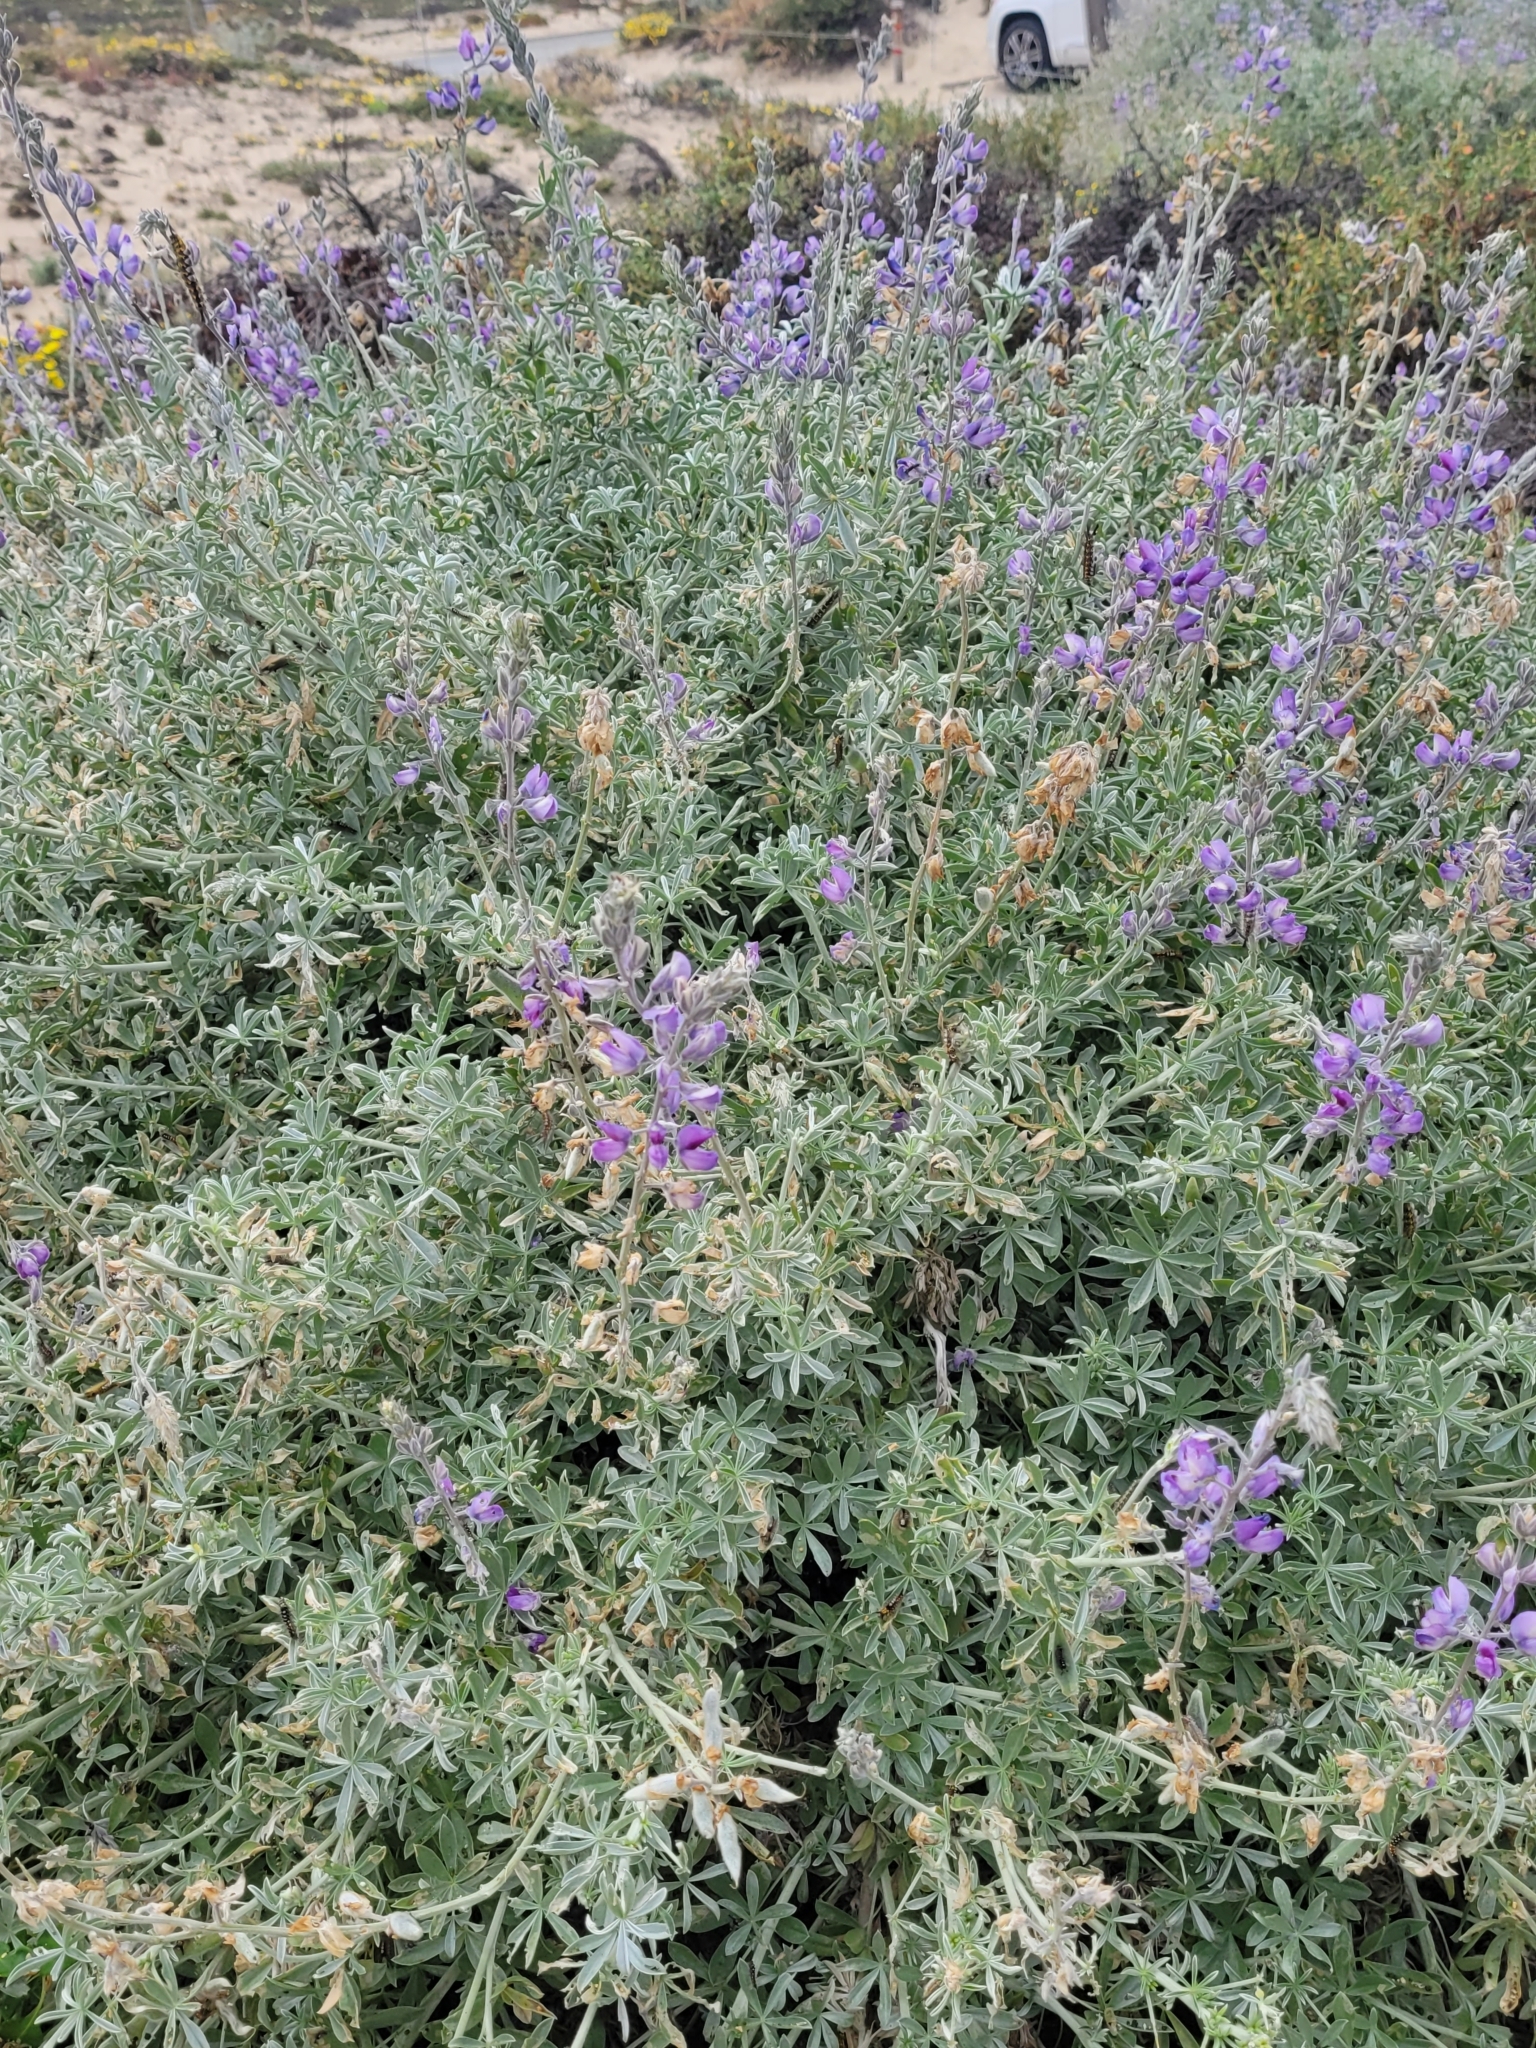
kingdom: Plantae
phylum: Tracheophyta
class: Magnoliopsida
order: Fabales
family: Fabaceae
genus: Lupinus
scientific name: Lupinus chamissonis
